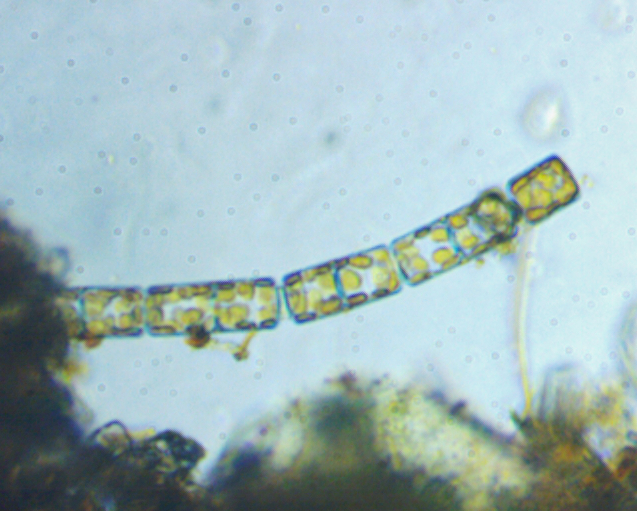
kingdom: Chromista
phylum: Ochrophyta
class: Bacillariophyceae
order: Melosirales
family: Melosiraceae
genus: Melosira
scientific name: Melosira varians
